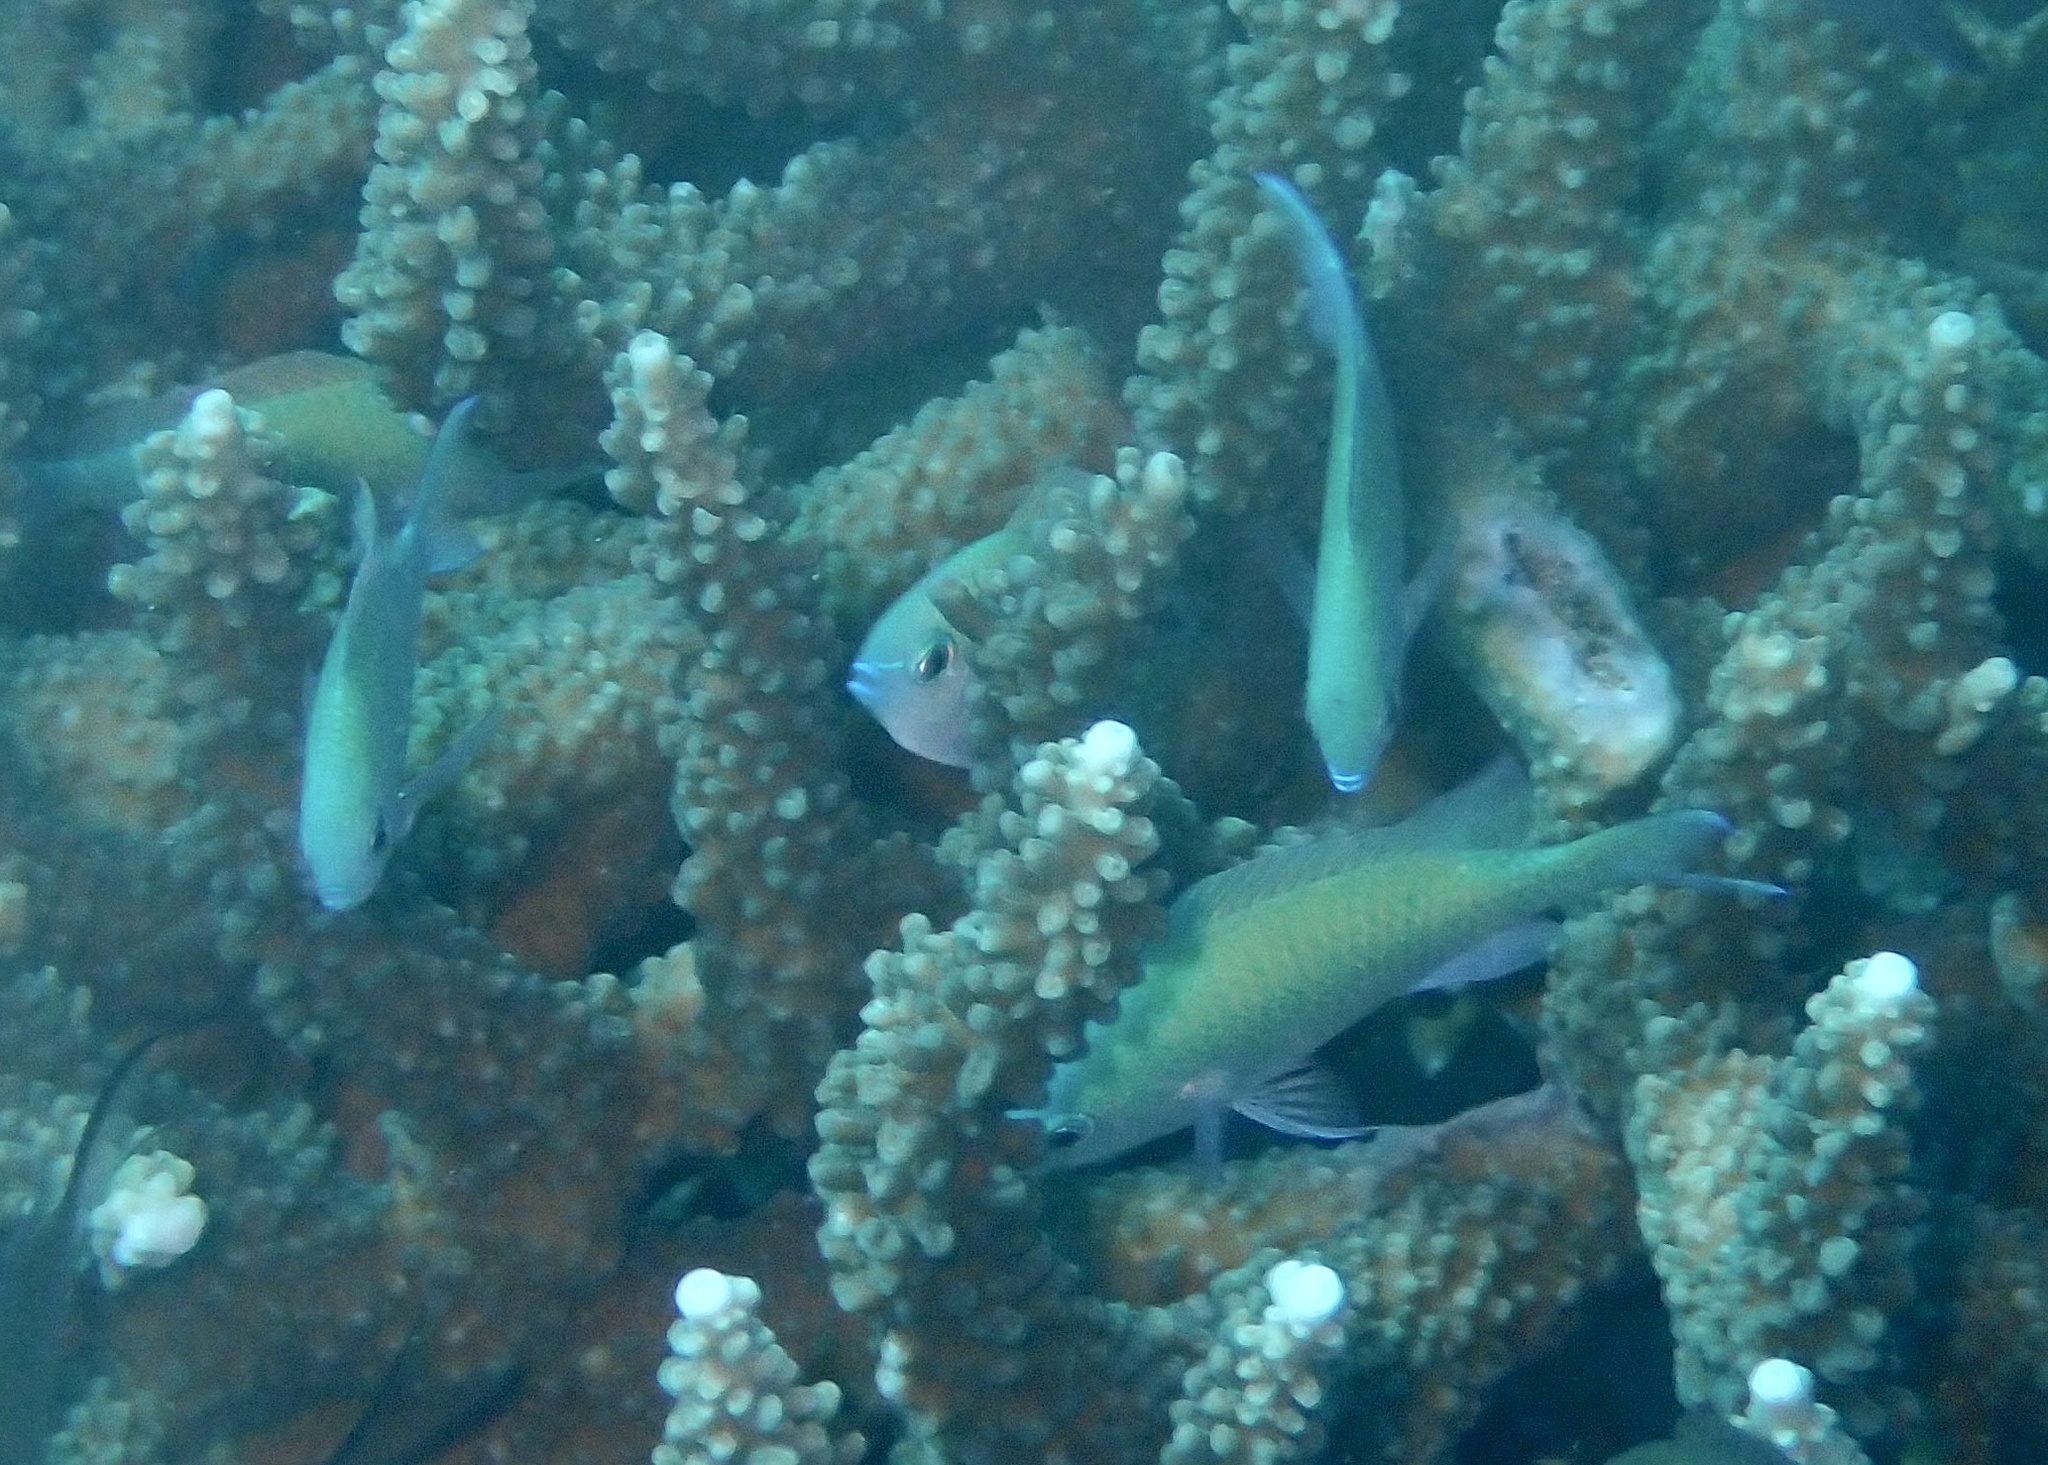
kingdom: Animalia
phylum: Chordata
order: Perciformes
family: Pomacentridae
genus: Chromis
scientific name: Chromis viridis
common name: Blue-green chromis
